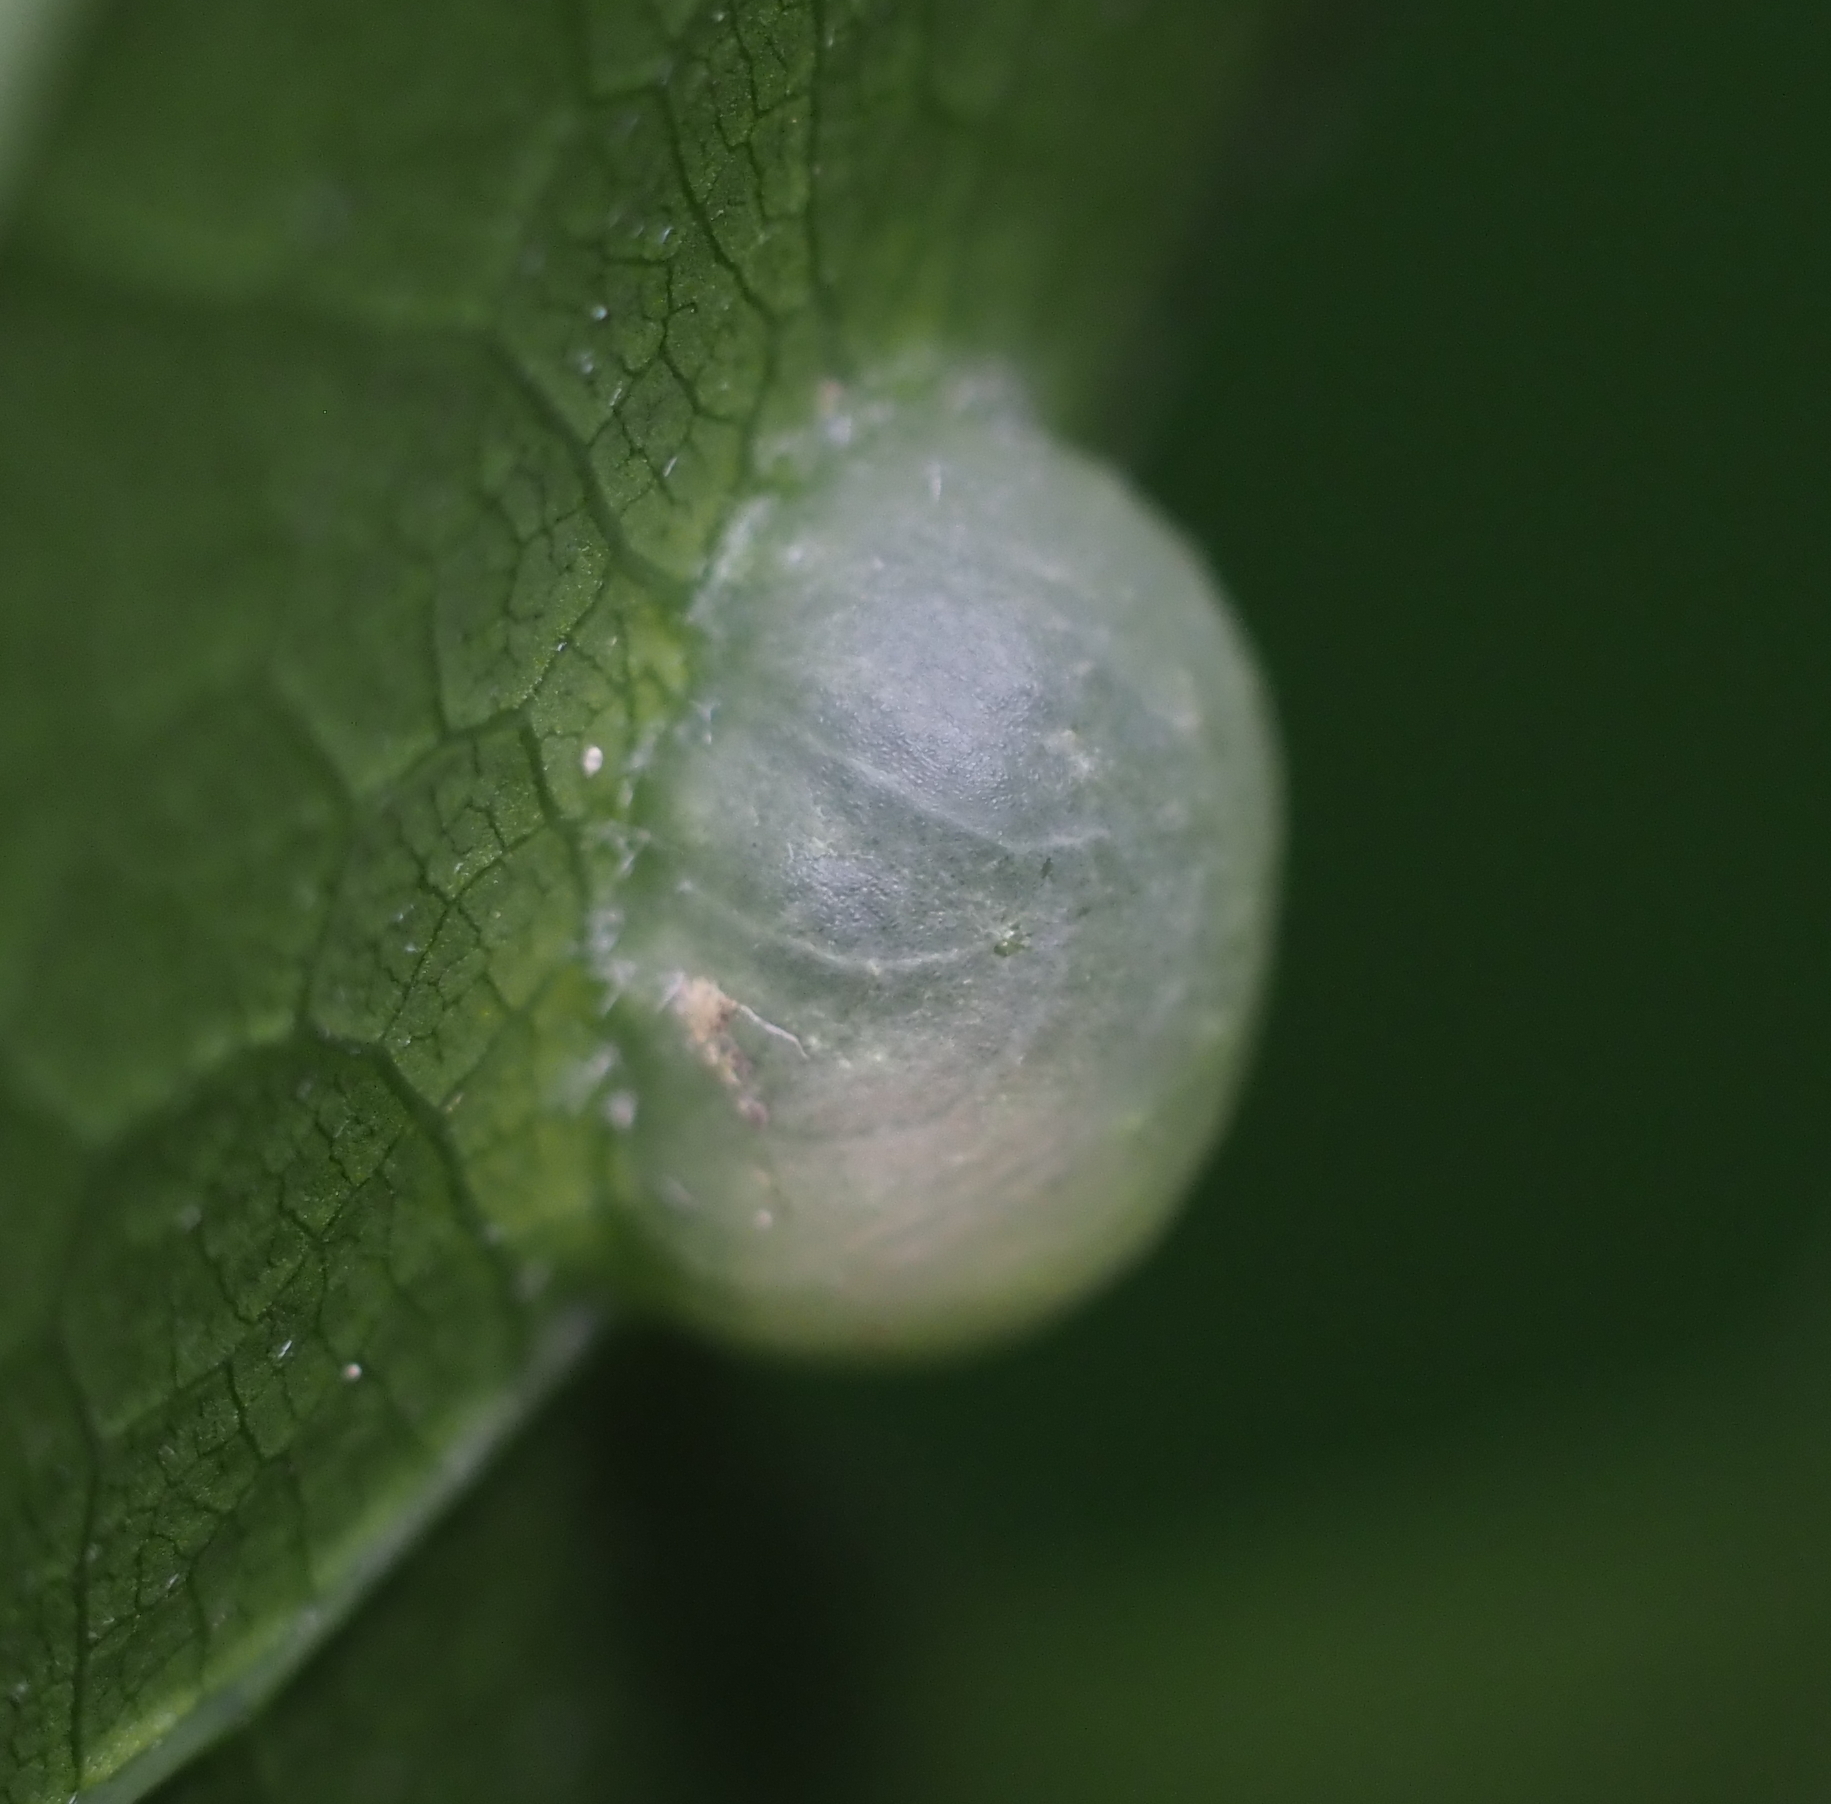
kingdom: Animalia
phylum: Arthropoda
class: Insecta
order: Hymenoptera
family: Cynipidae
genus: Dryocosmus
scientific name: Dryocosmus
